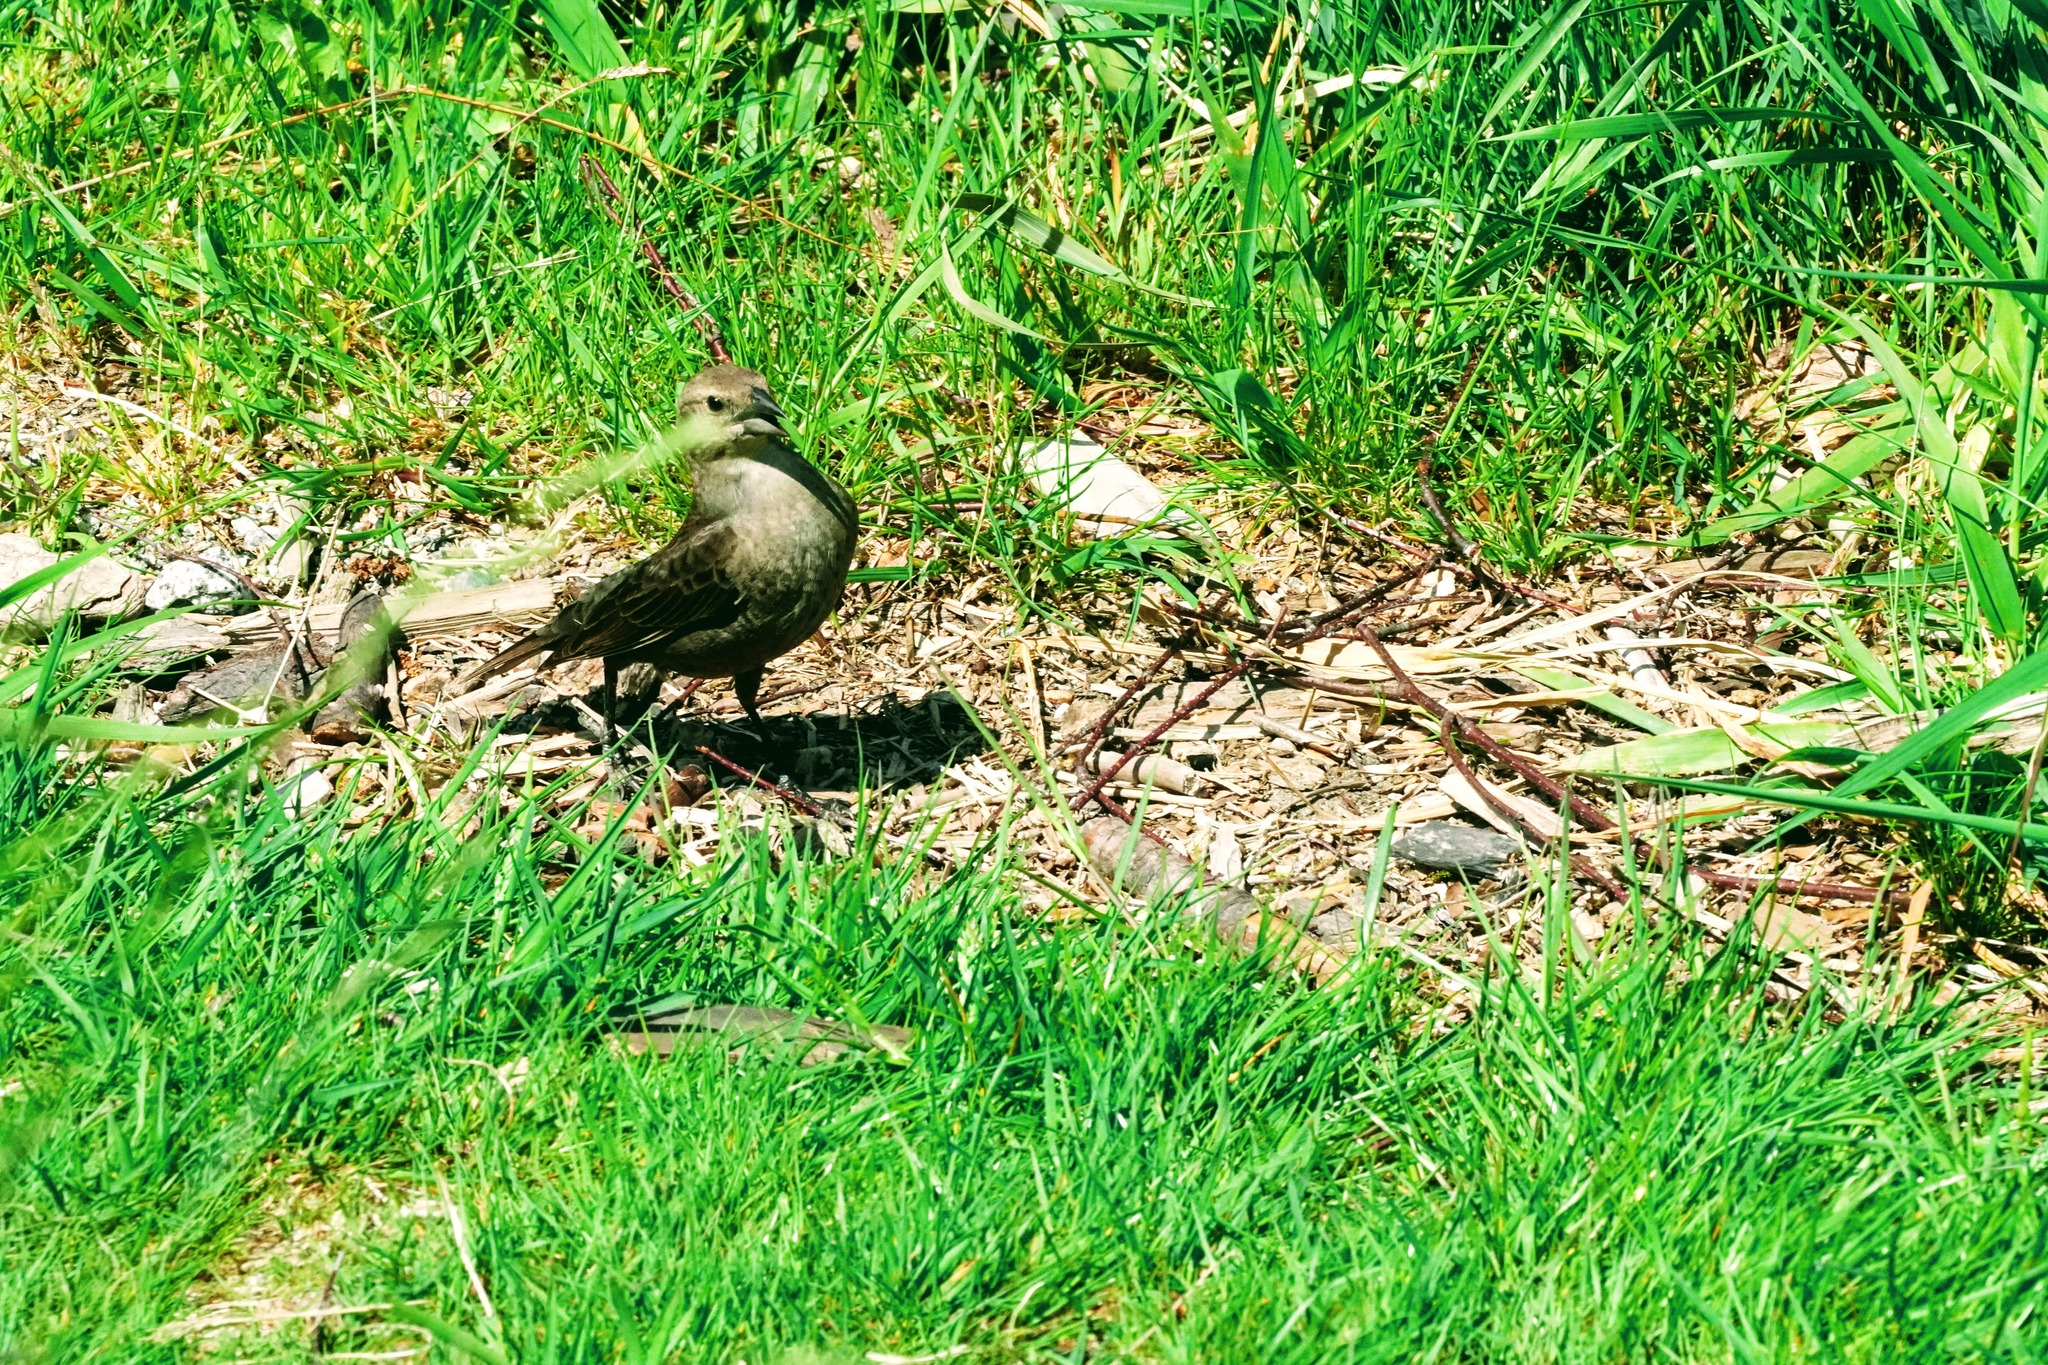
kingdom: Animalia
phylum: Chordata
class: Aves
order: Passeriformes
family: Icteridae
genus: Molothrus
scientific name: Molothrus ater
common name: Brown-headed cowbird
